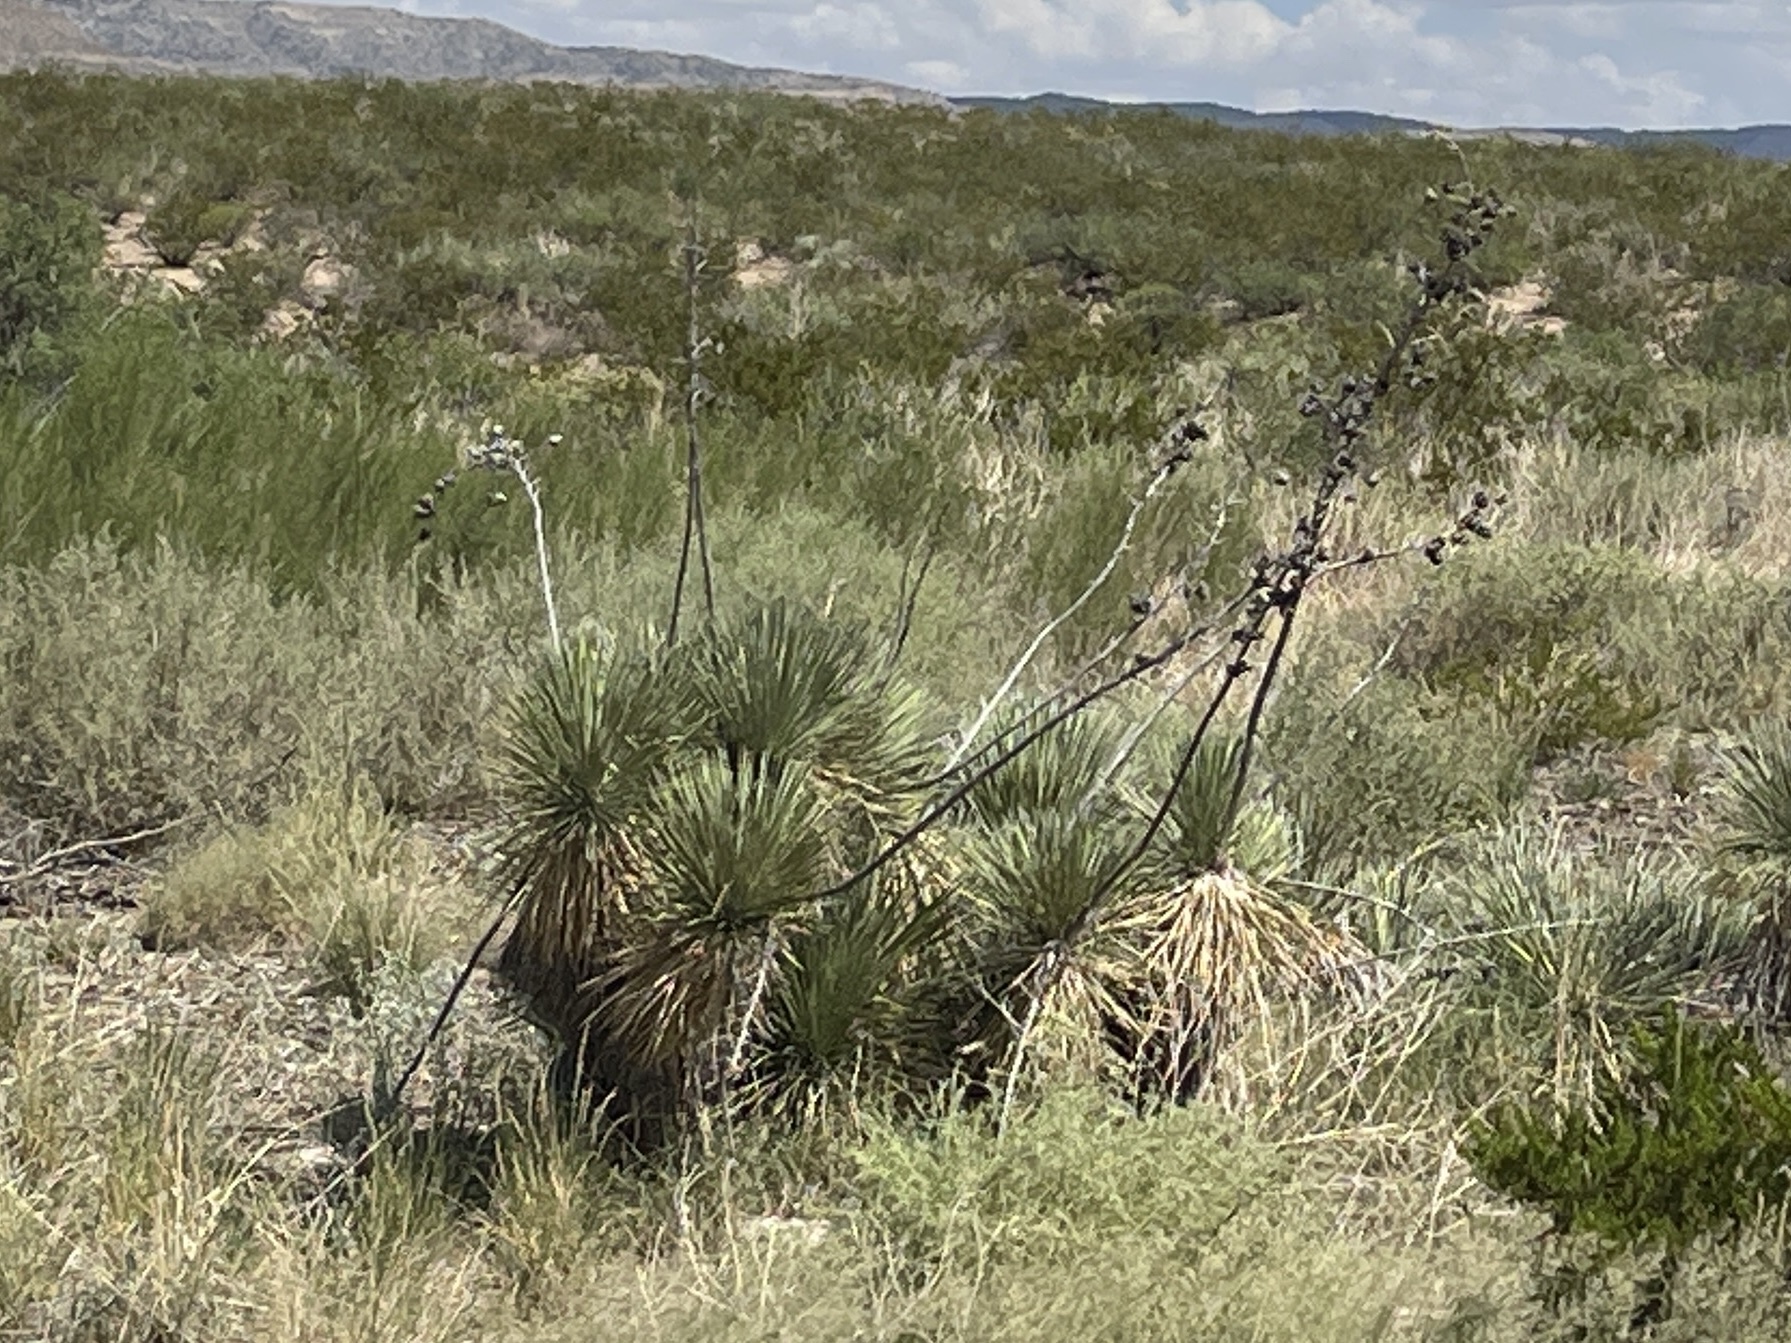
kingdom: Plantae
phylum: Tracheophyta
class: Liliopsida
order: Asparagales
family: Asparagaceae
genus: Yucca
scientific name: Yucca elata
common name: Palmella
